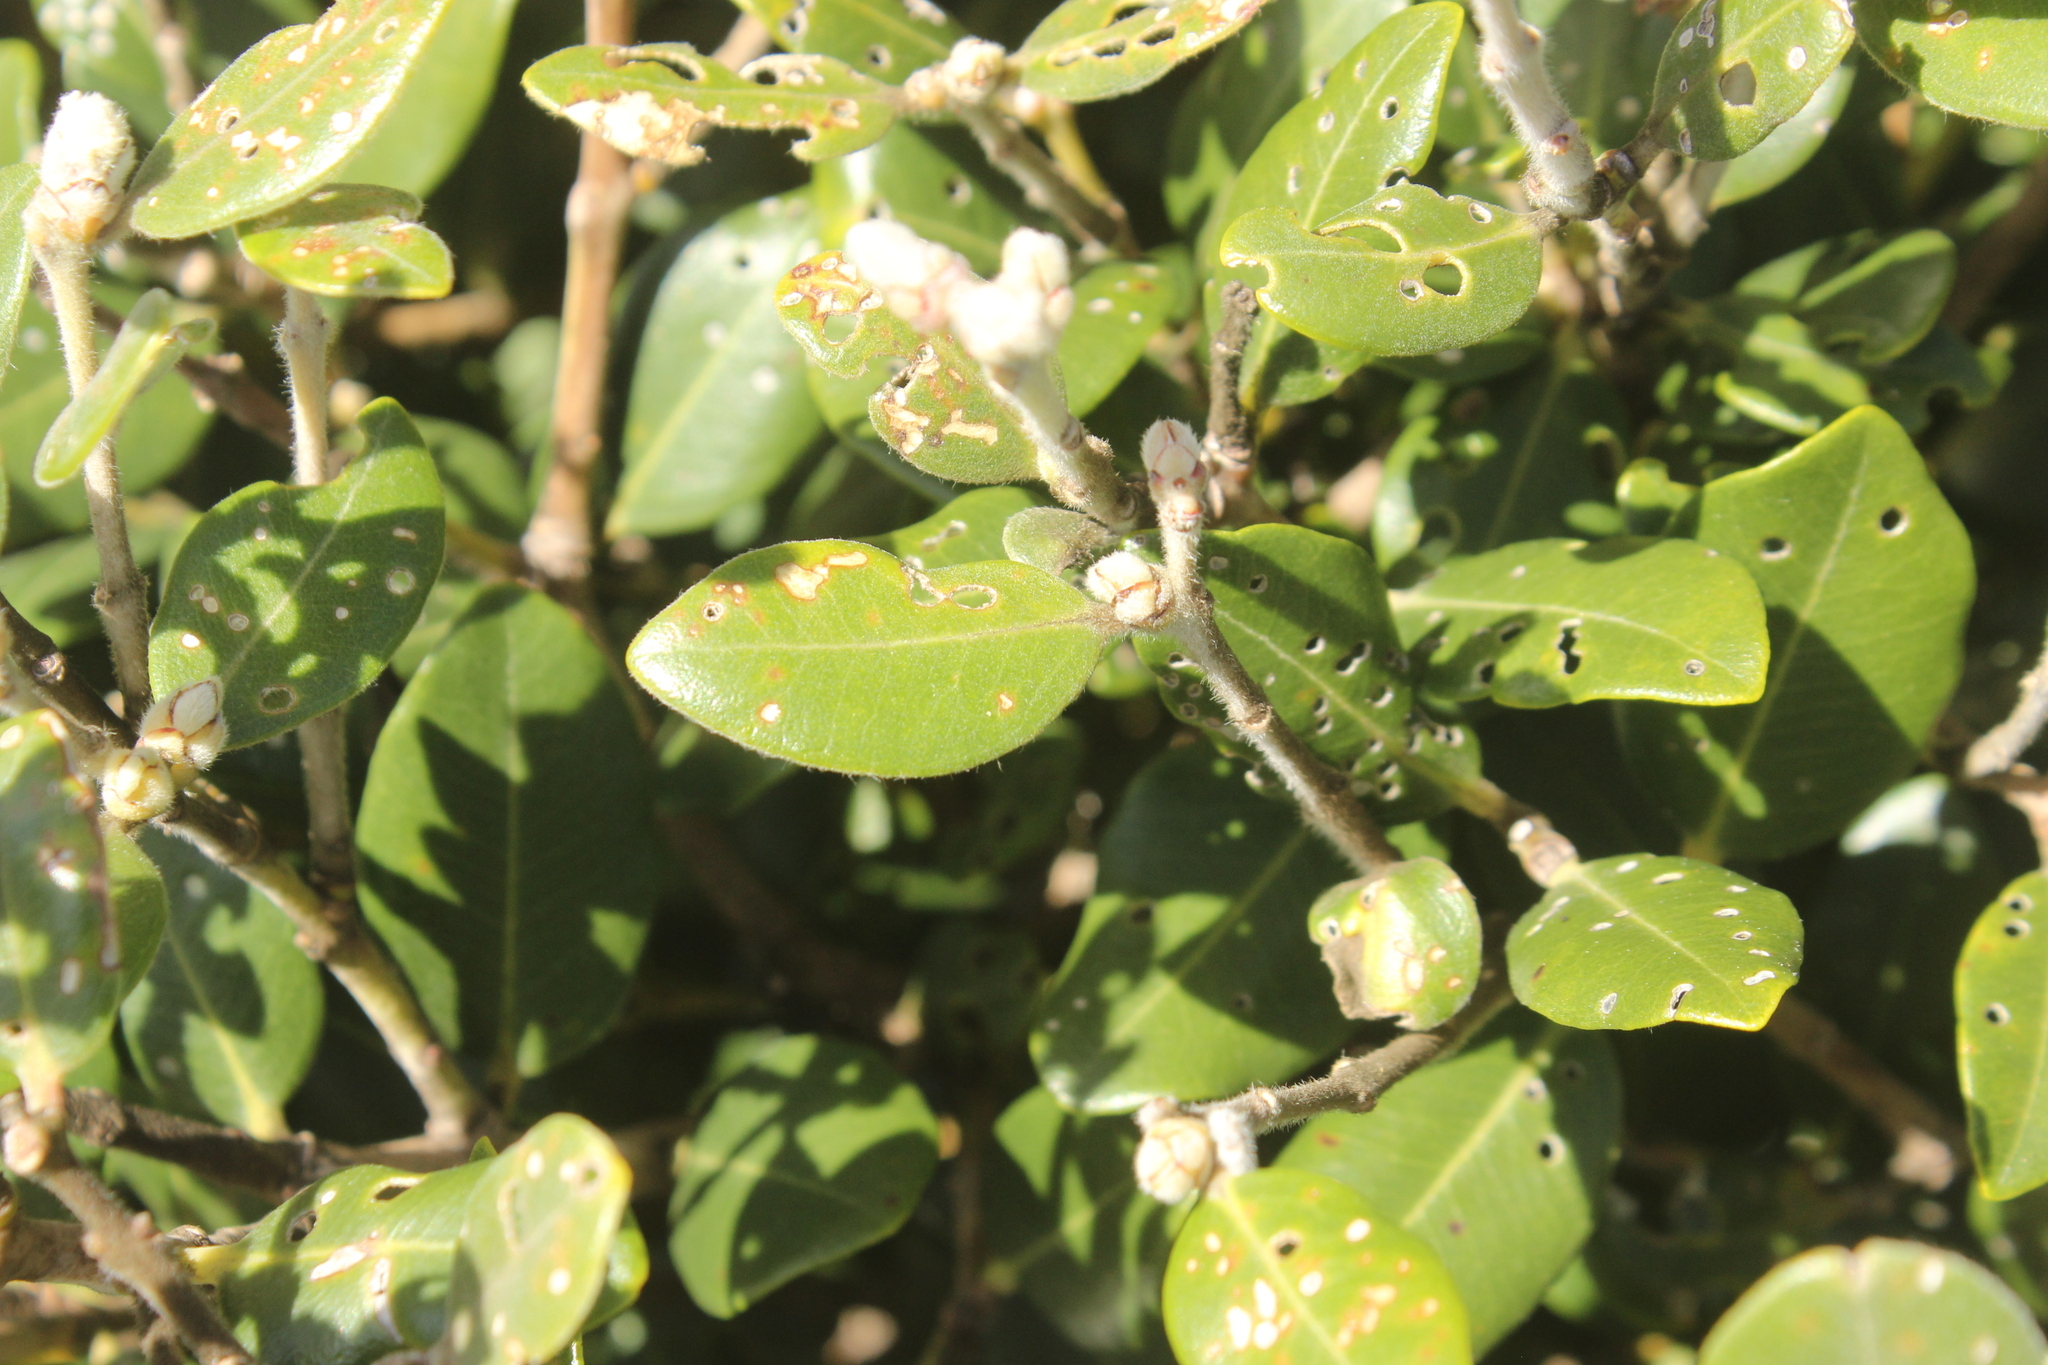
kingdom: Plantae
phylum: Tracheophyta
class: Magnoliopsida
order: Myrtales
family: Myrtaceae
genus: Metrosideros
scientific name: Metrosideros excelsa
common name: New zealand christmastree
